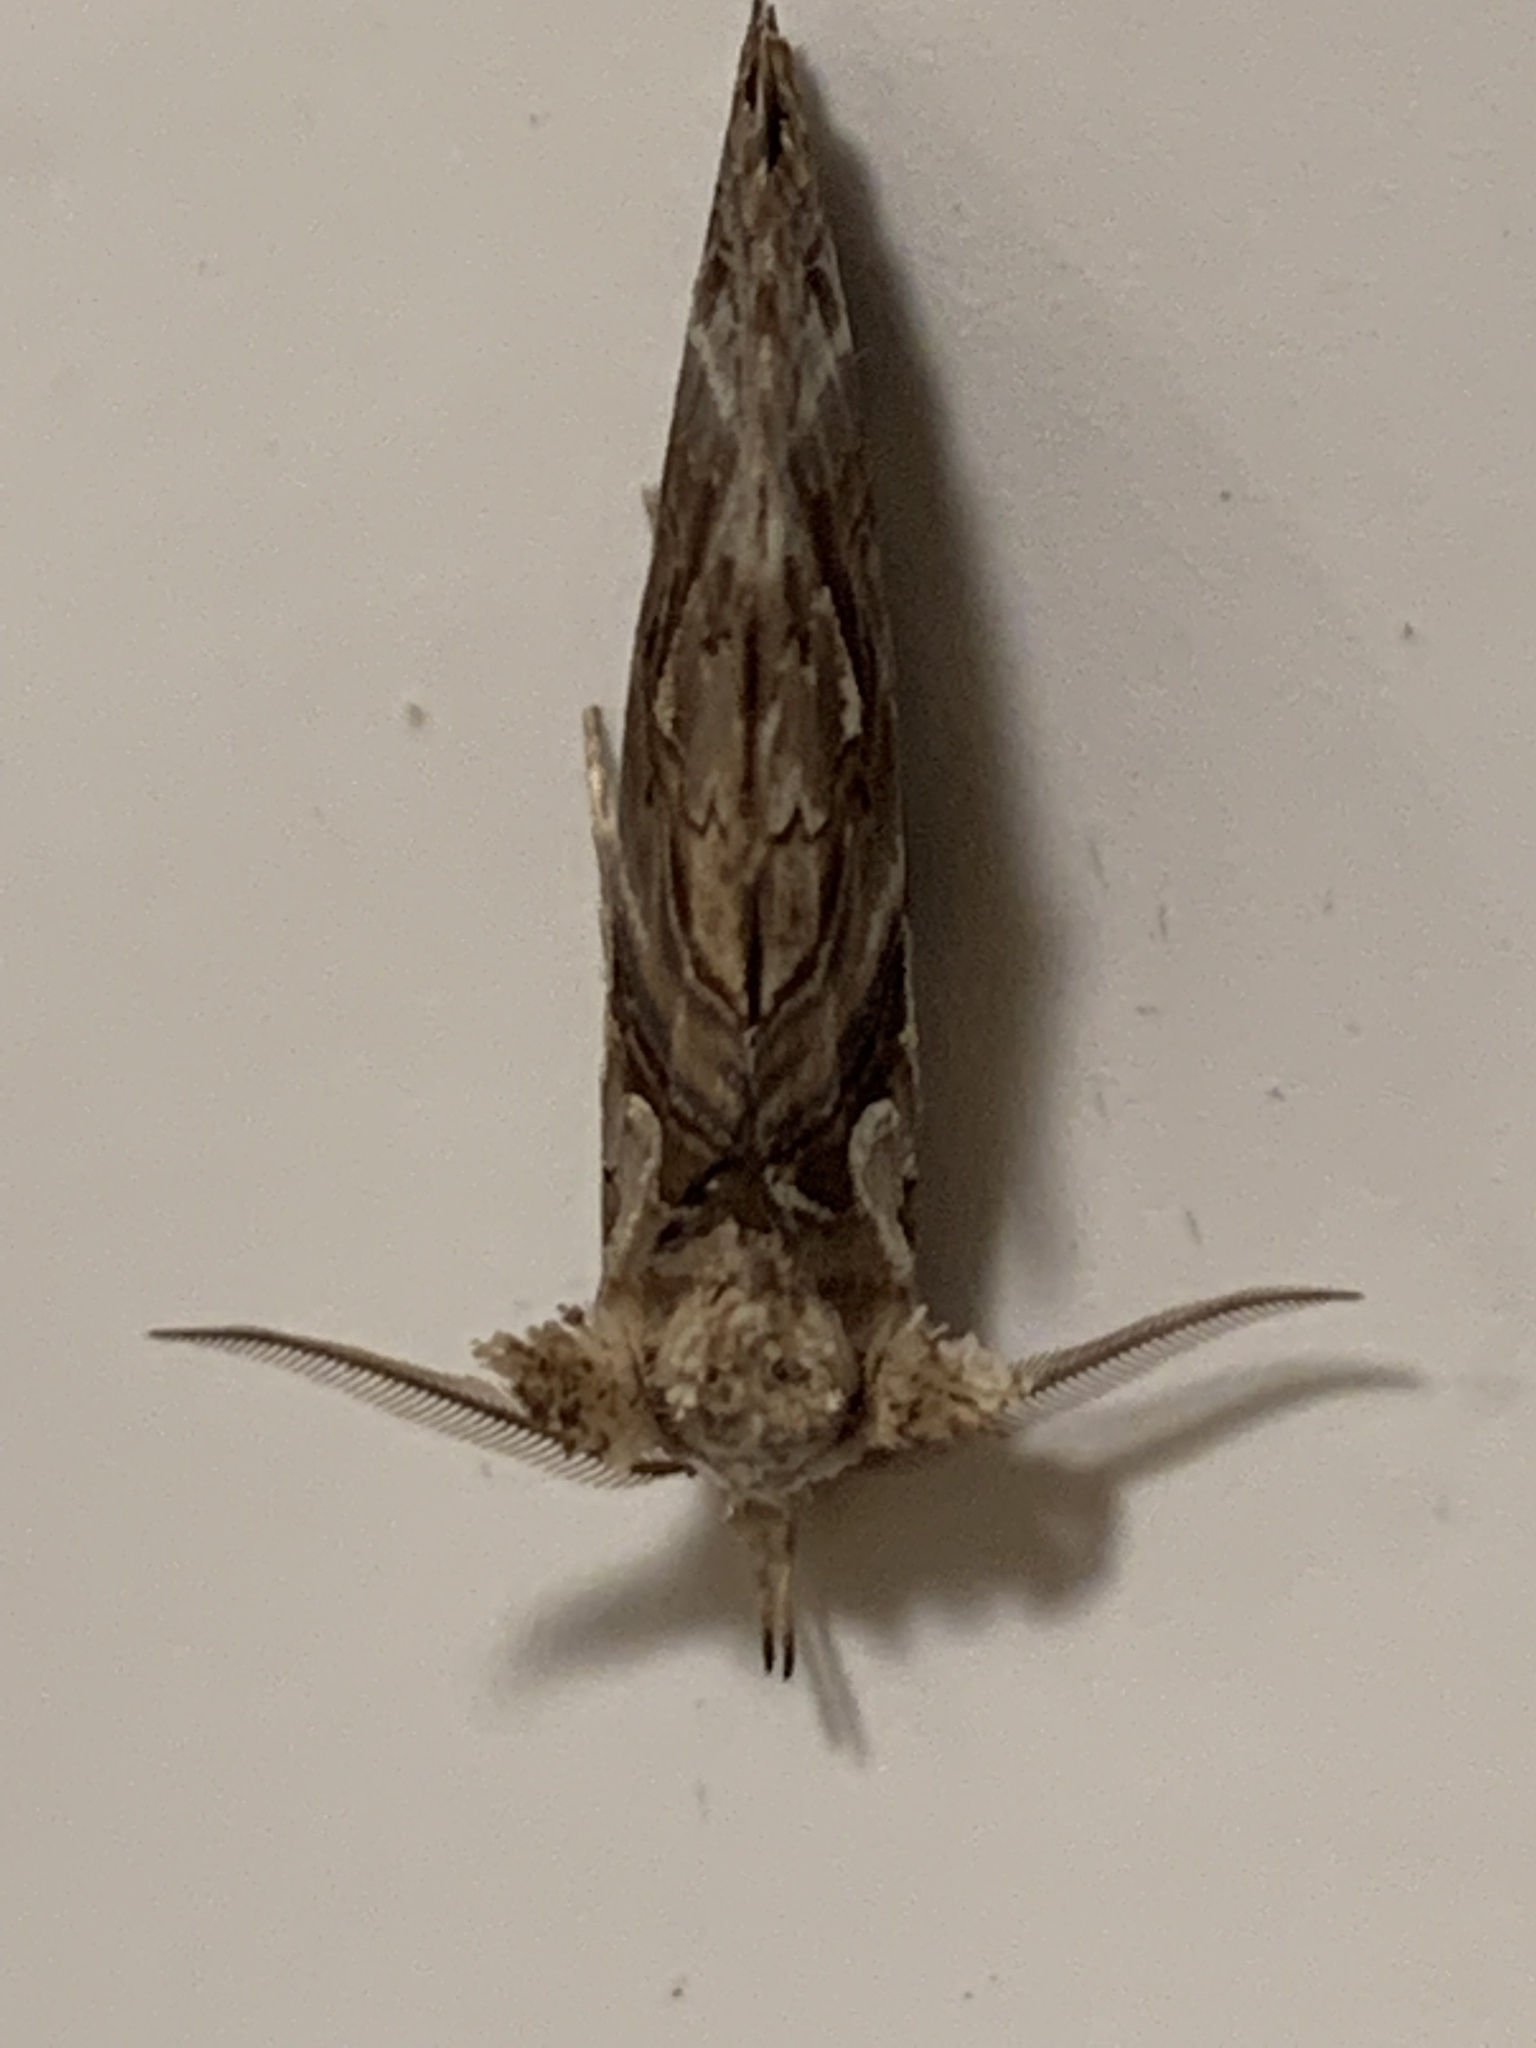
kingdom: Animalia
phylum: Arthropoda
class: Insecta
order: Lepidoptera
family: Erebidae
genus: Plusiodonta
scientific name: Plusiodonta compressipalpis
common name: Moonseed moth
